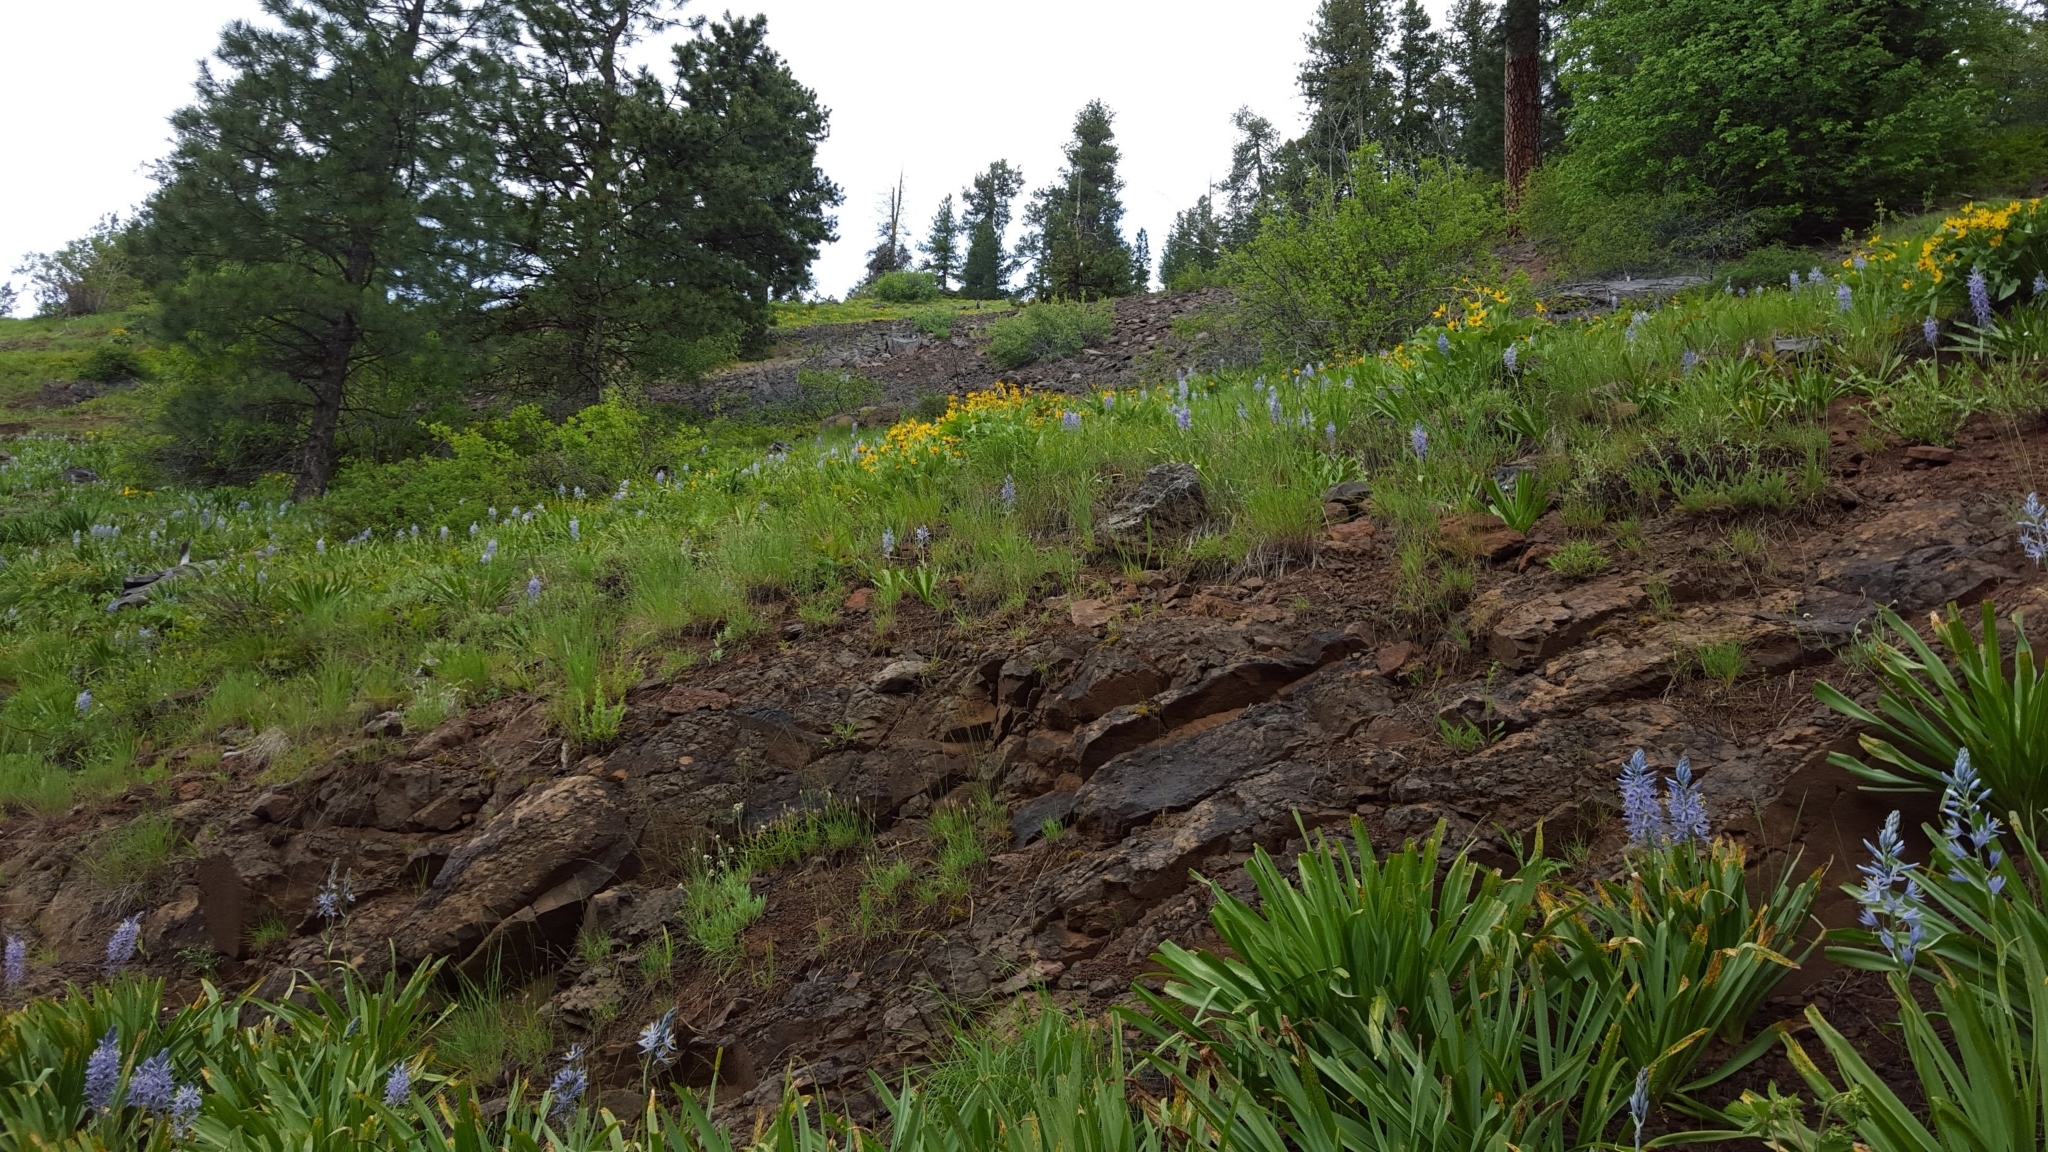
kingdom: Plantae
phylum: Tracheophyta
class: Liliopsida
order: Asparagales
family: Asparagaceae
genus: Camassia
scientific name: Camassia cusickii
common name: Cusick camas
